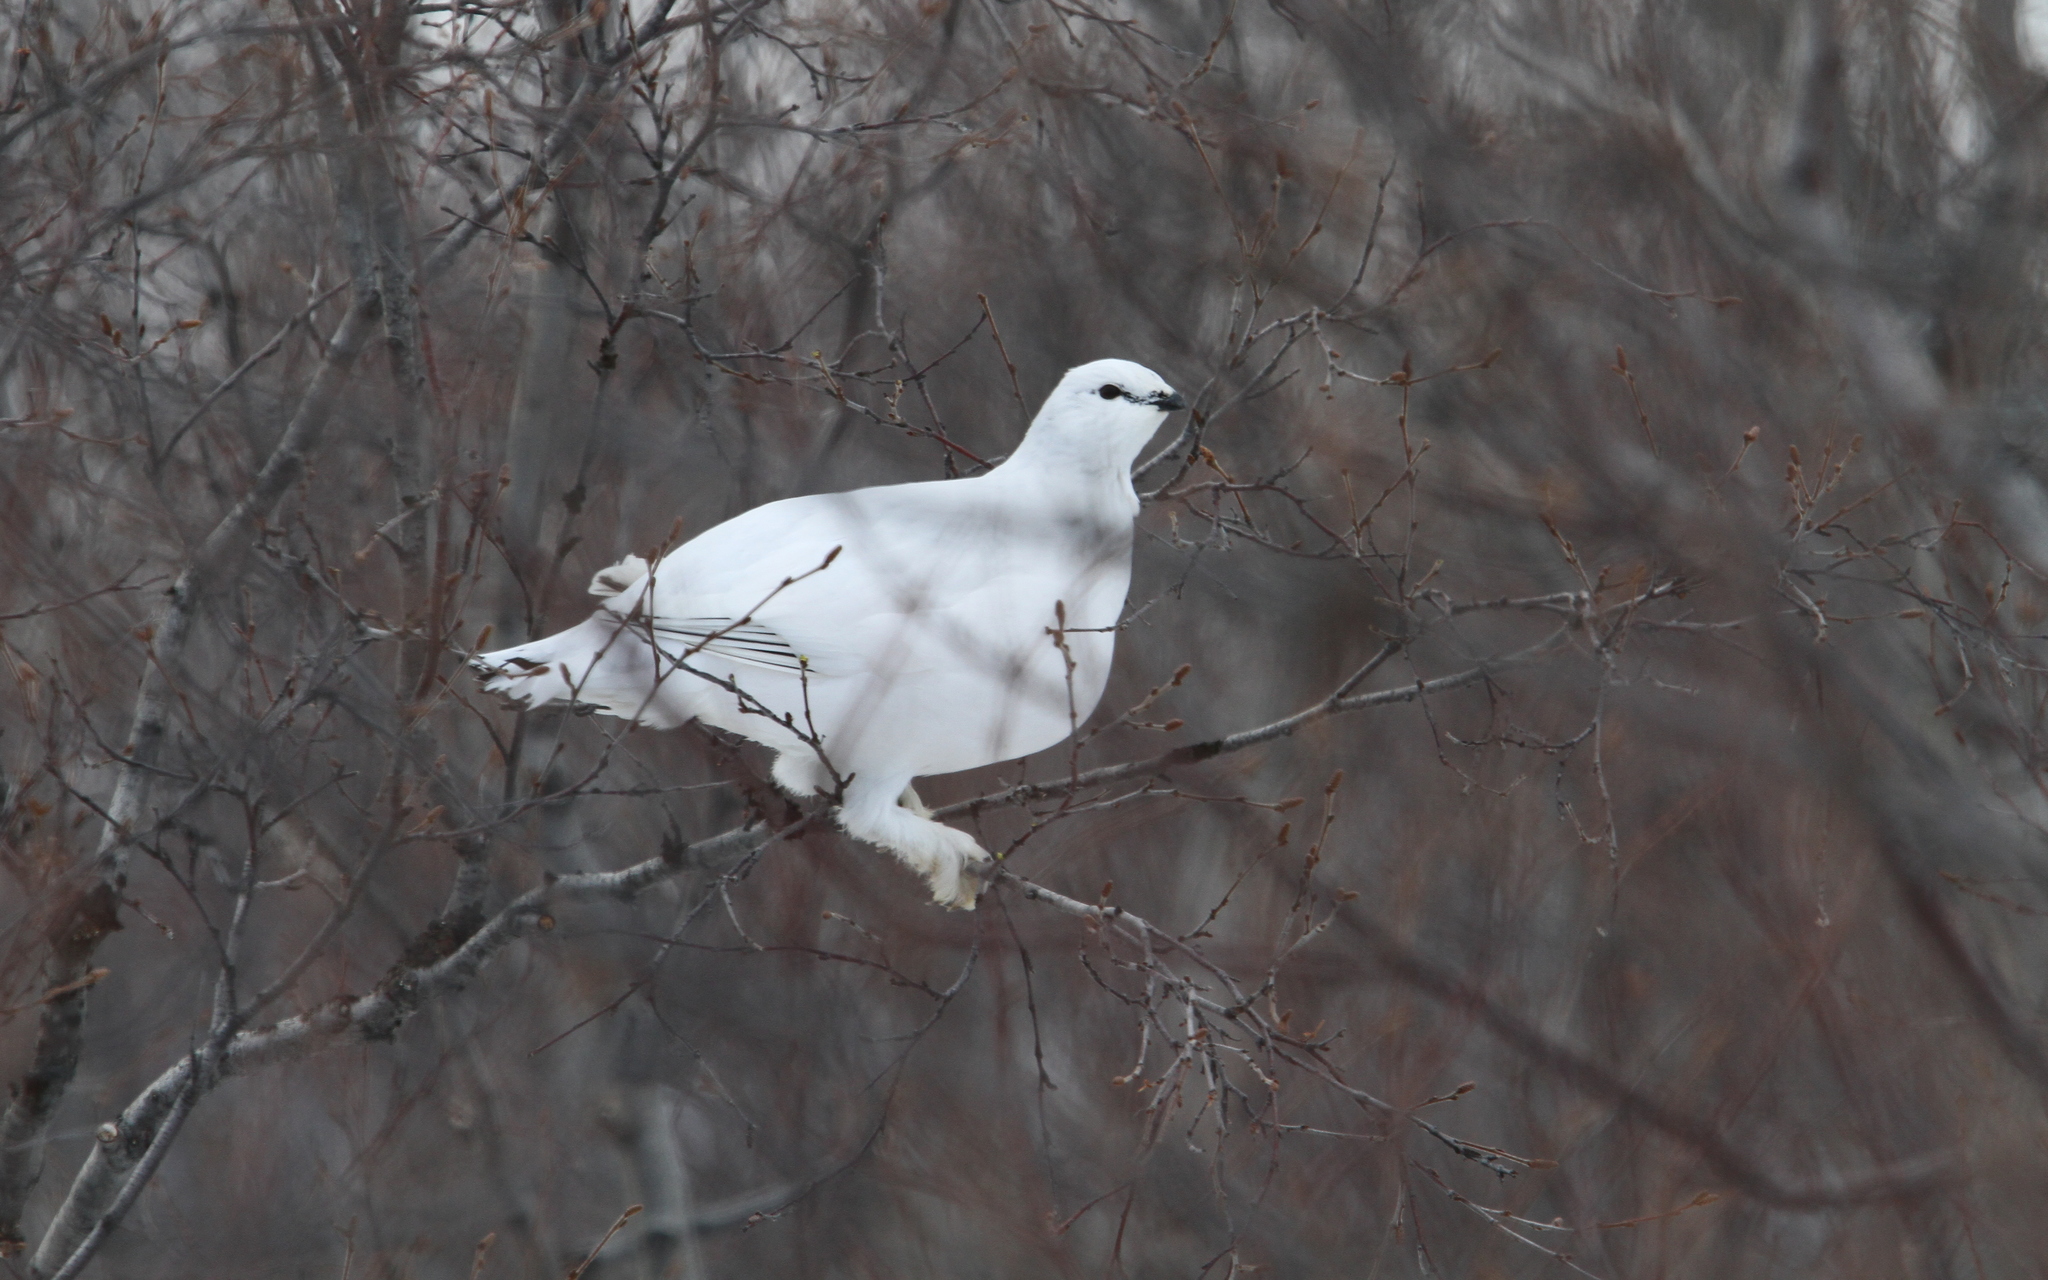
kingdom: Animalia
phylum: Chordata
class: Aves
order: Galliformes
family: Phasianidae
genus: Lagopus
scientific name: Lagopus muta
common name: Rock ptarmigan
